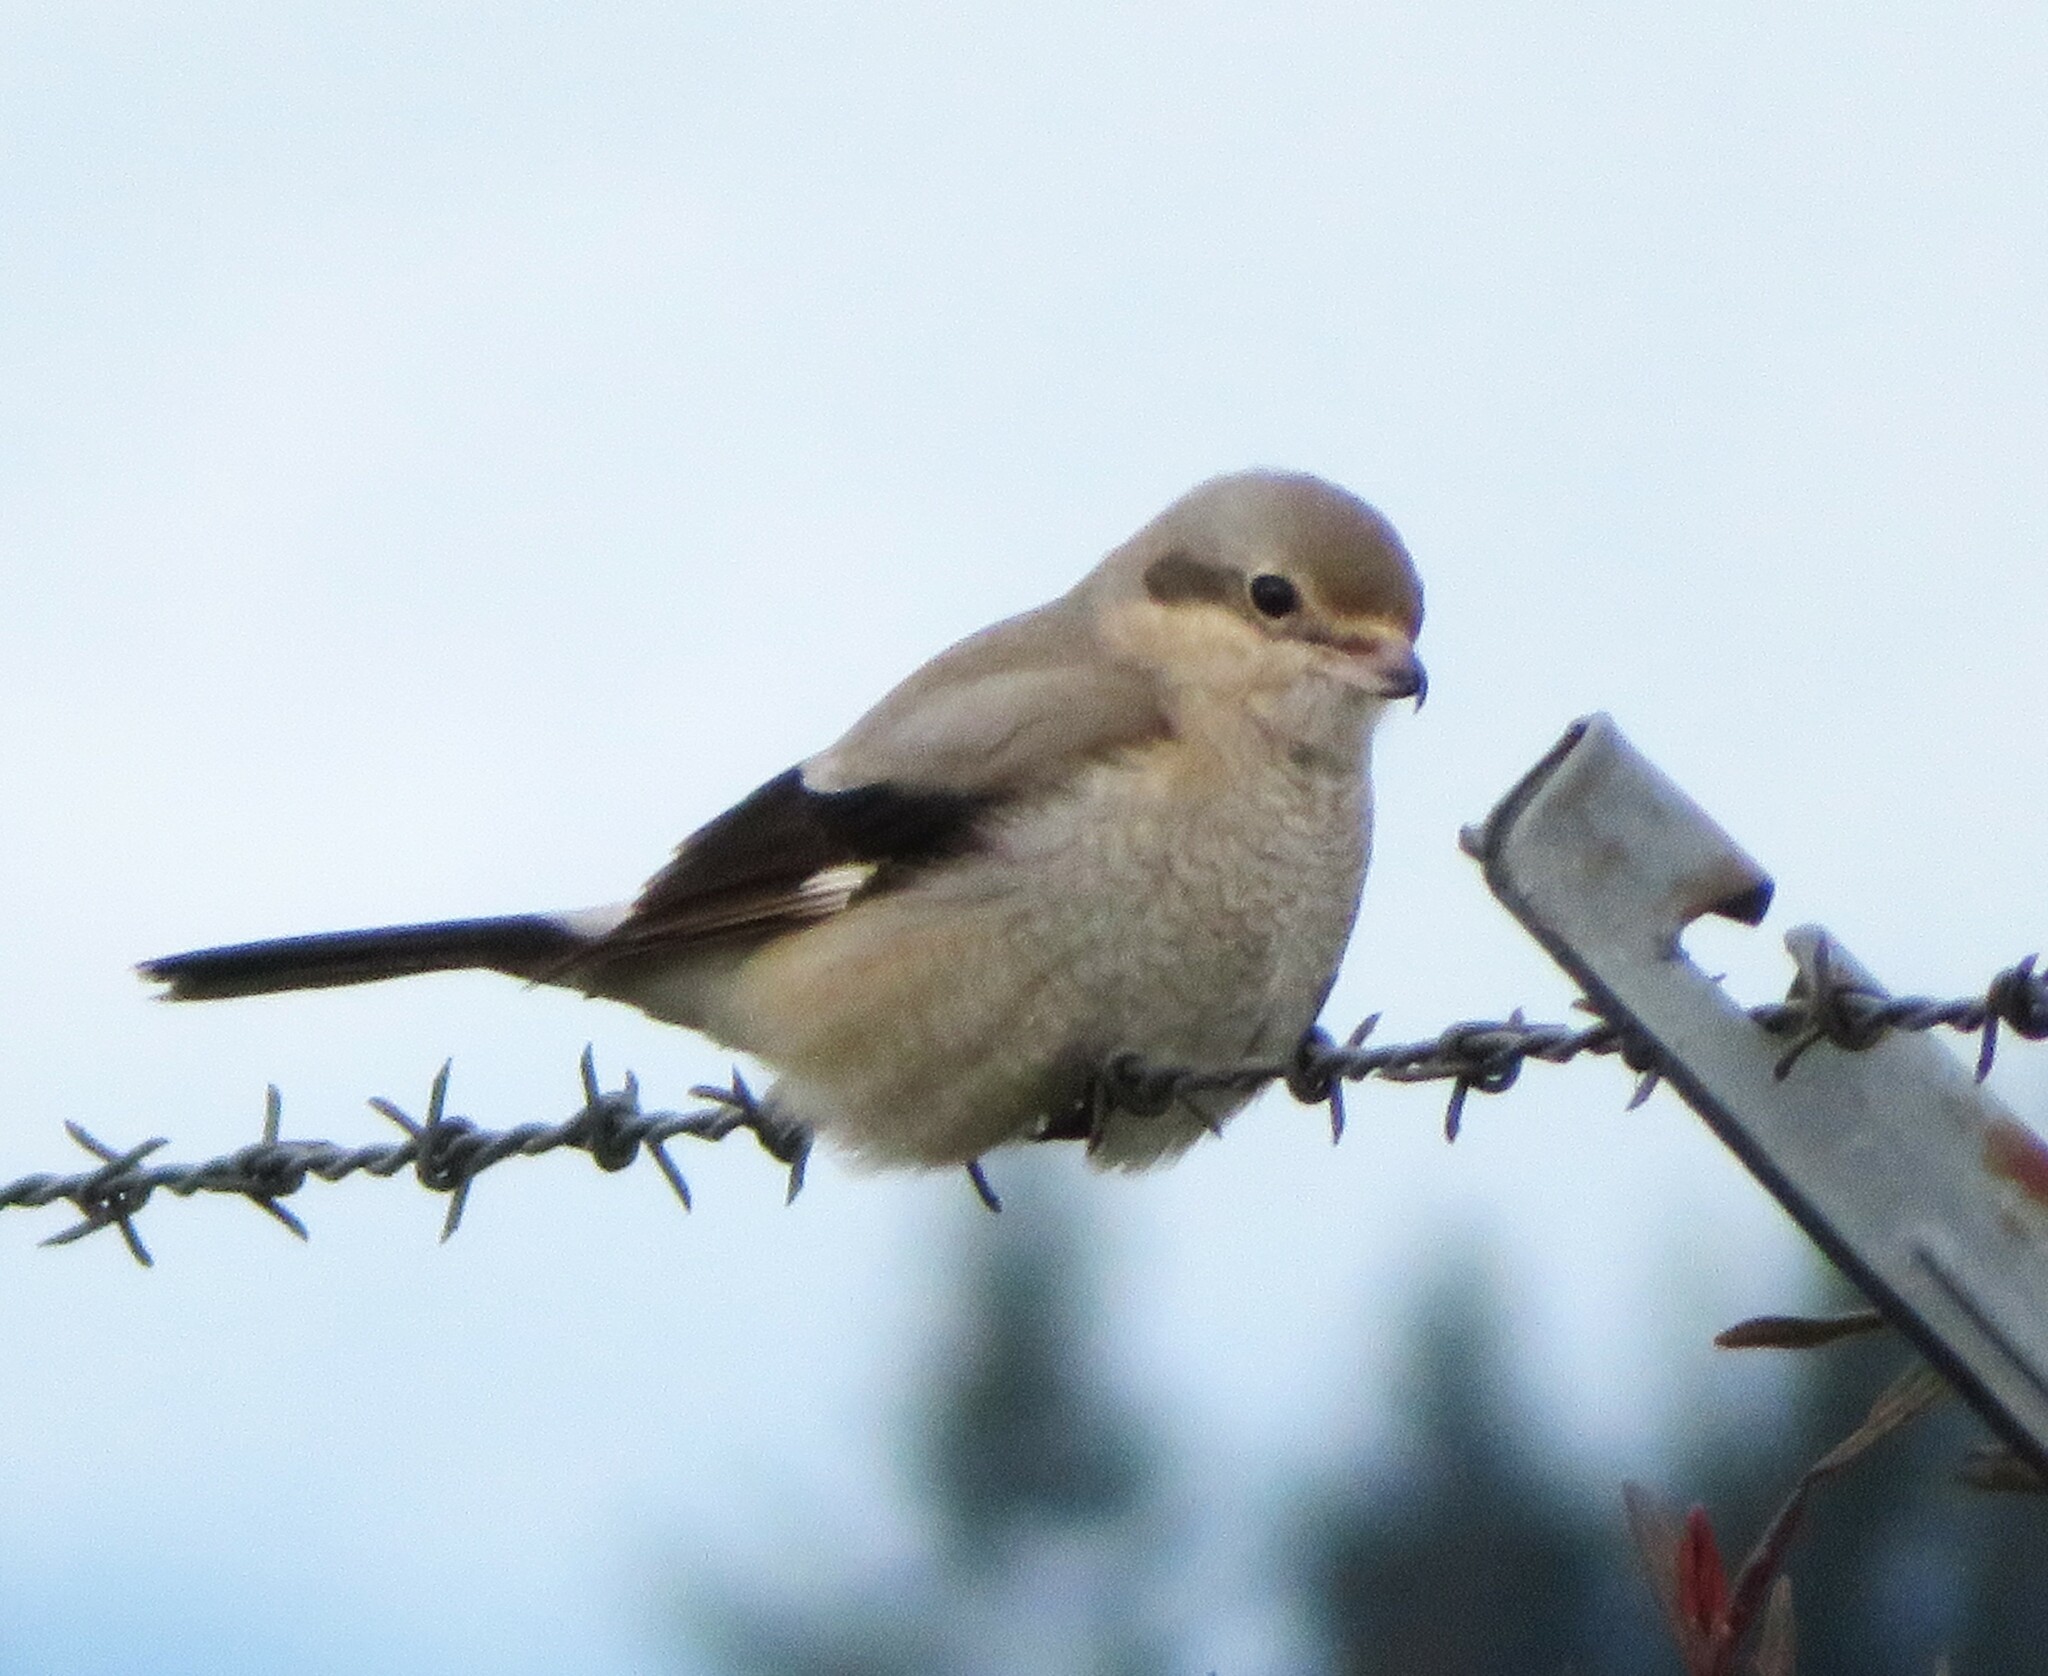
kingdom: Animalia
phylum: Chordata
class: Aves
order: Passeriformes
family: Laniidae
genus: Lanius
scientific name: Lanius borealis
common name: Northern shrike
